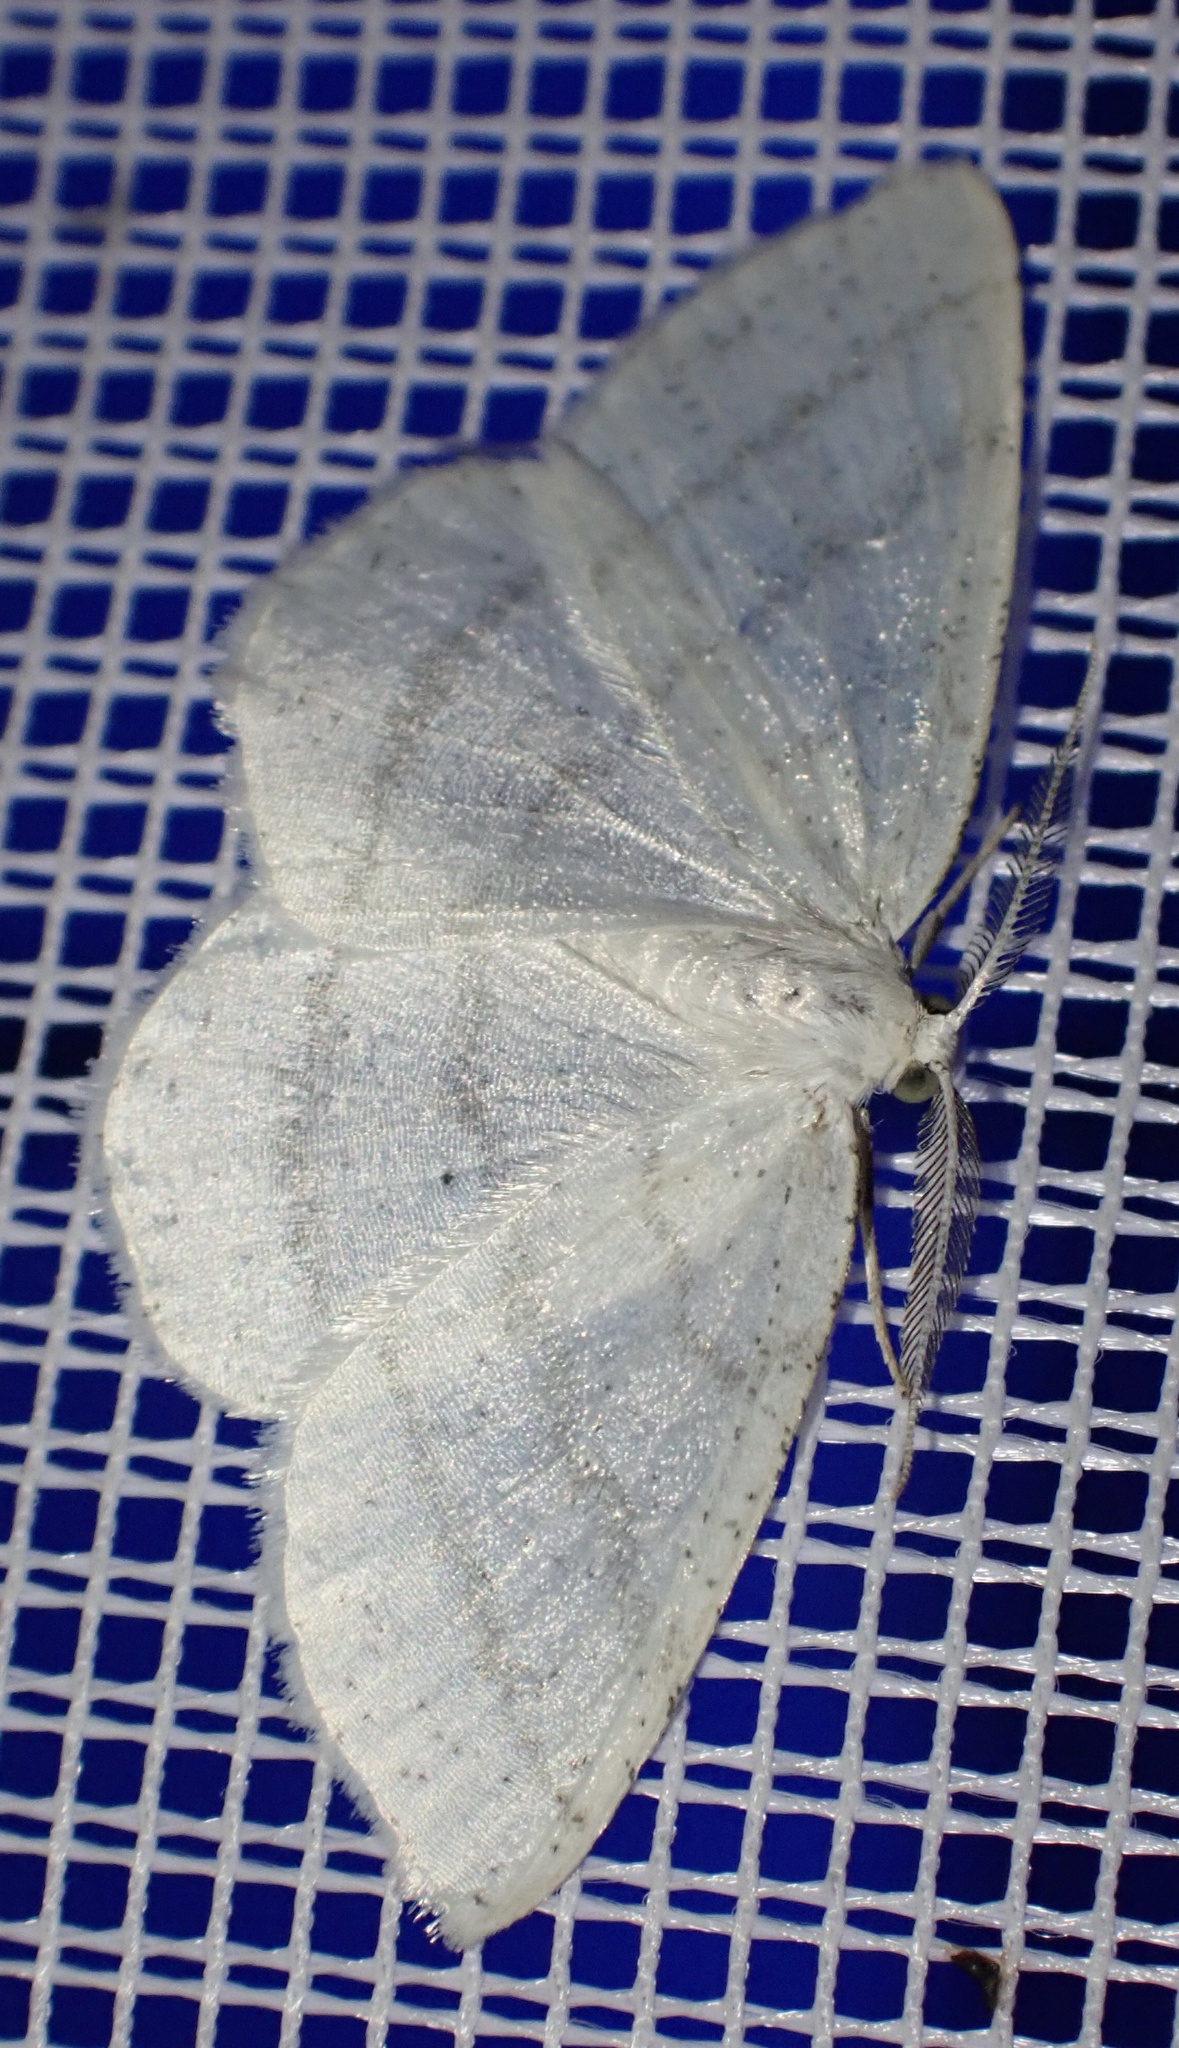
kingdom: Animalia
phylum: Arthropoda
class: Insecta
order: Lepidoptera
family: Geometridae
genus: Cabera
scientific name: Cabera pusaria
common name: Common white wave
